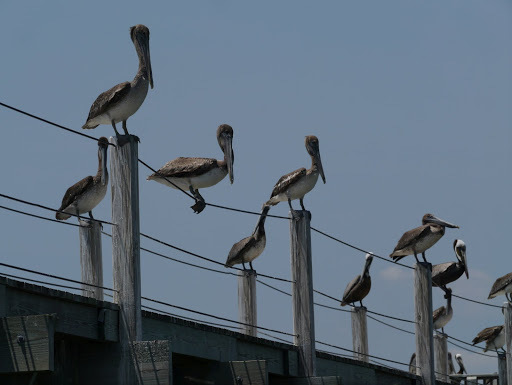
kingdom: Animalia
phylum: Chordata
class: Aves
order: Pelecaniformes
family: Pelecanidae
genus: Pelecanus
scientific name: Pelecanus occidentalis
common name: Brown pelican
